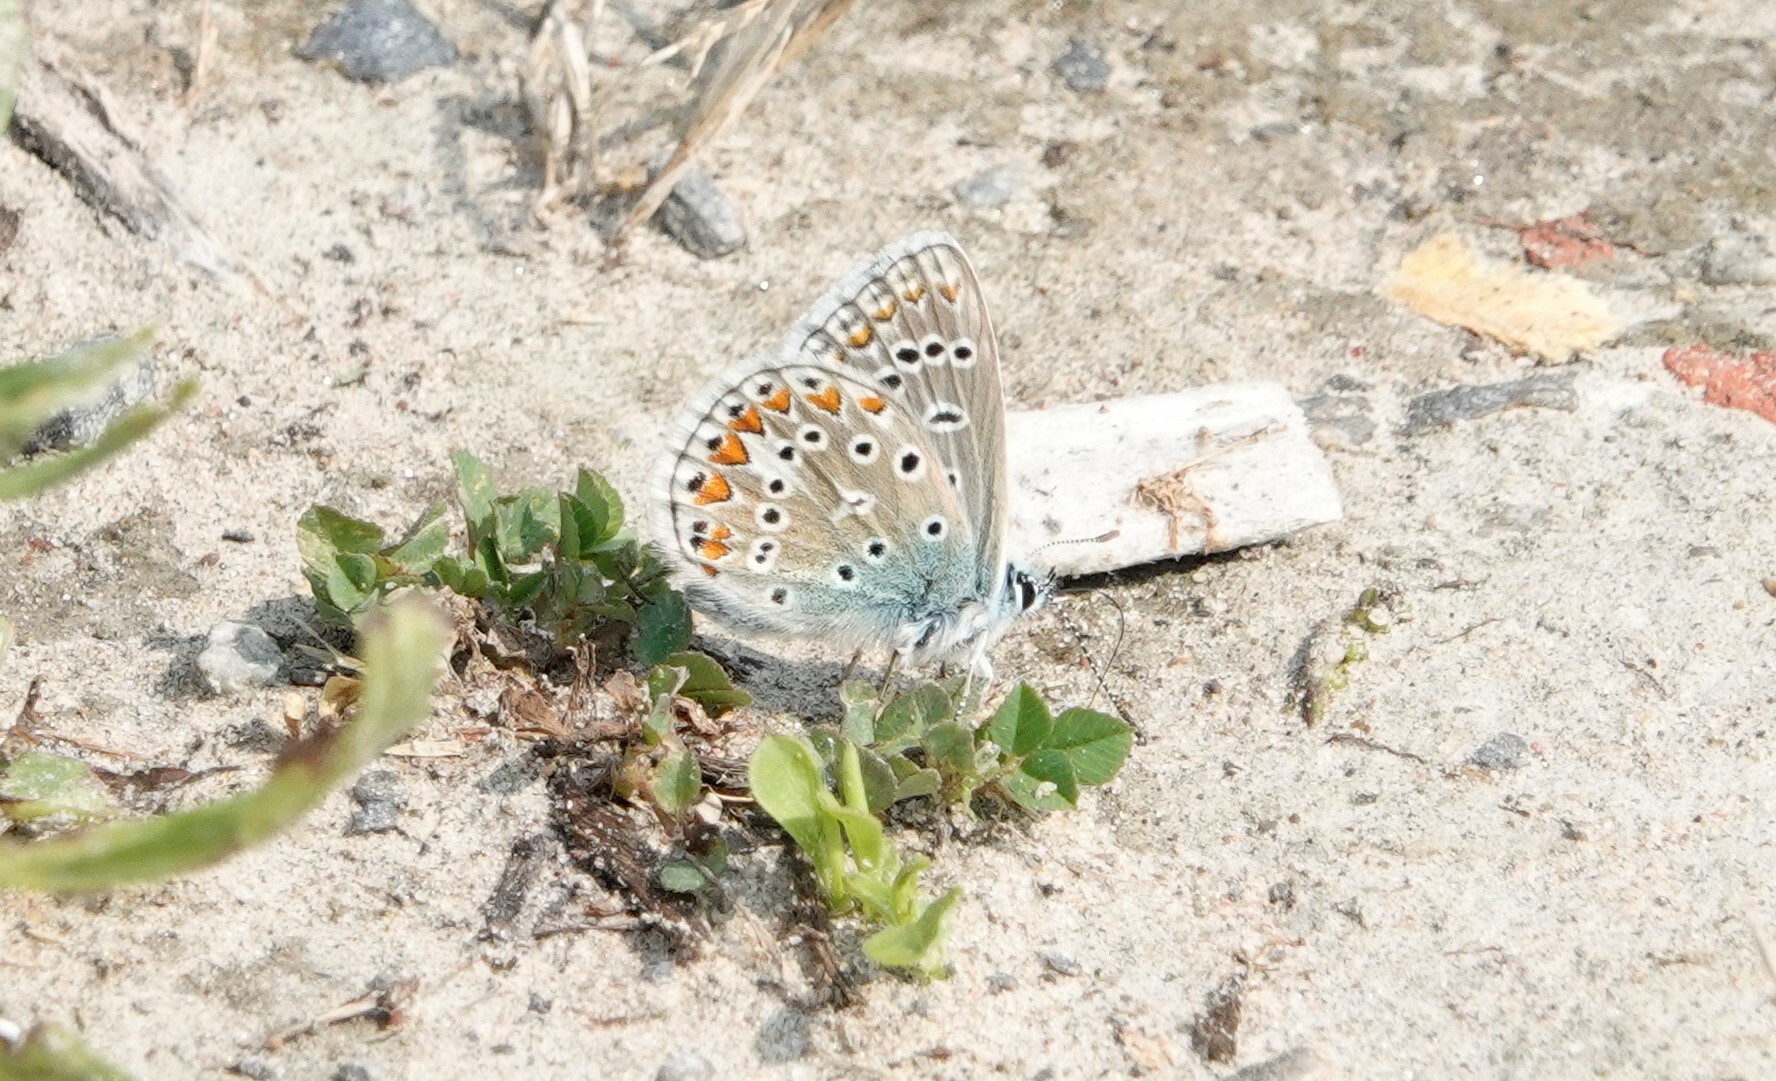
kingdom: Animalia
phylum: Arthropoda
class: Insecta
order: Lepidoptera
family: Lycaenidae
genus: Polyommatus
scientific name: Polyommatus icarus
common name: Common blue
